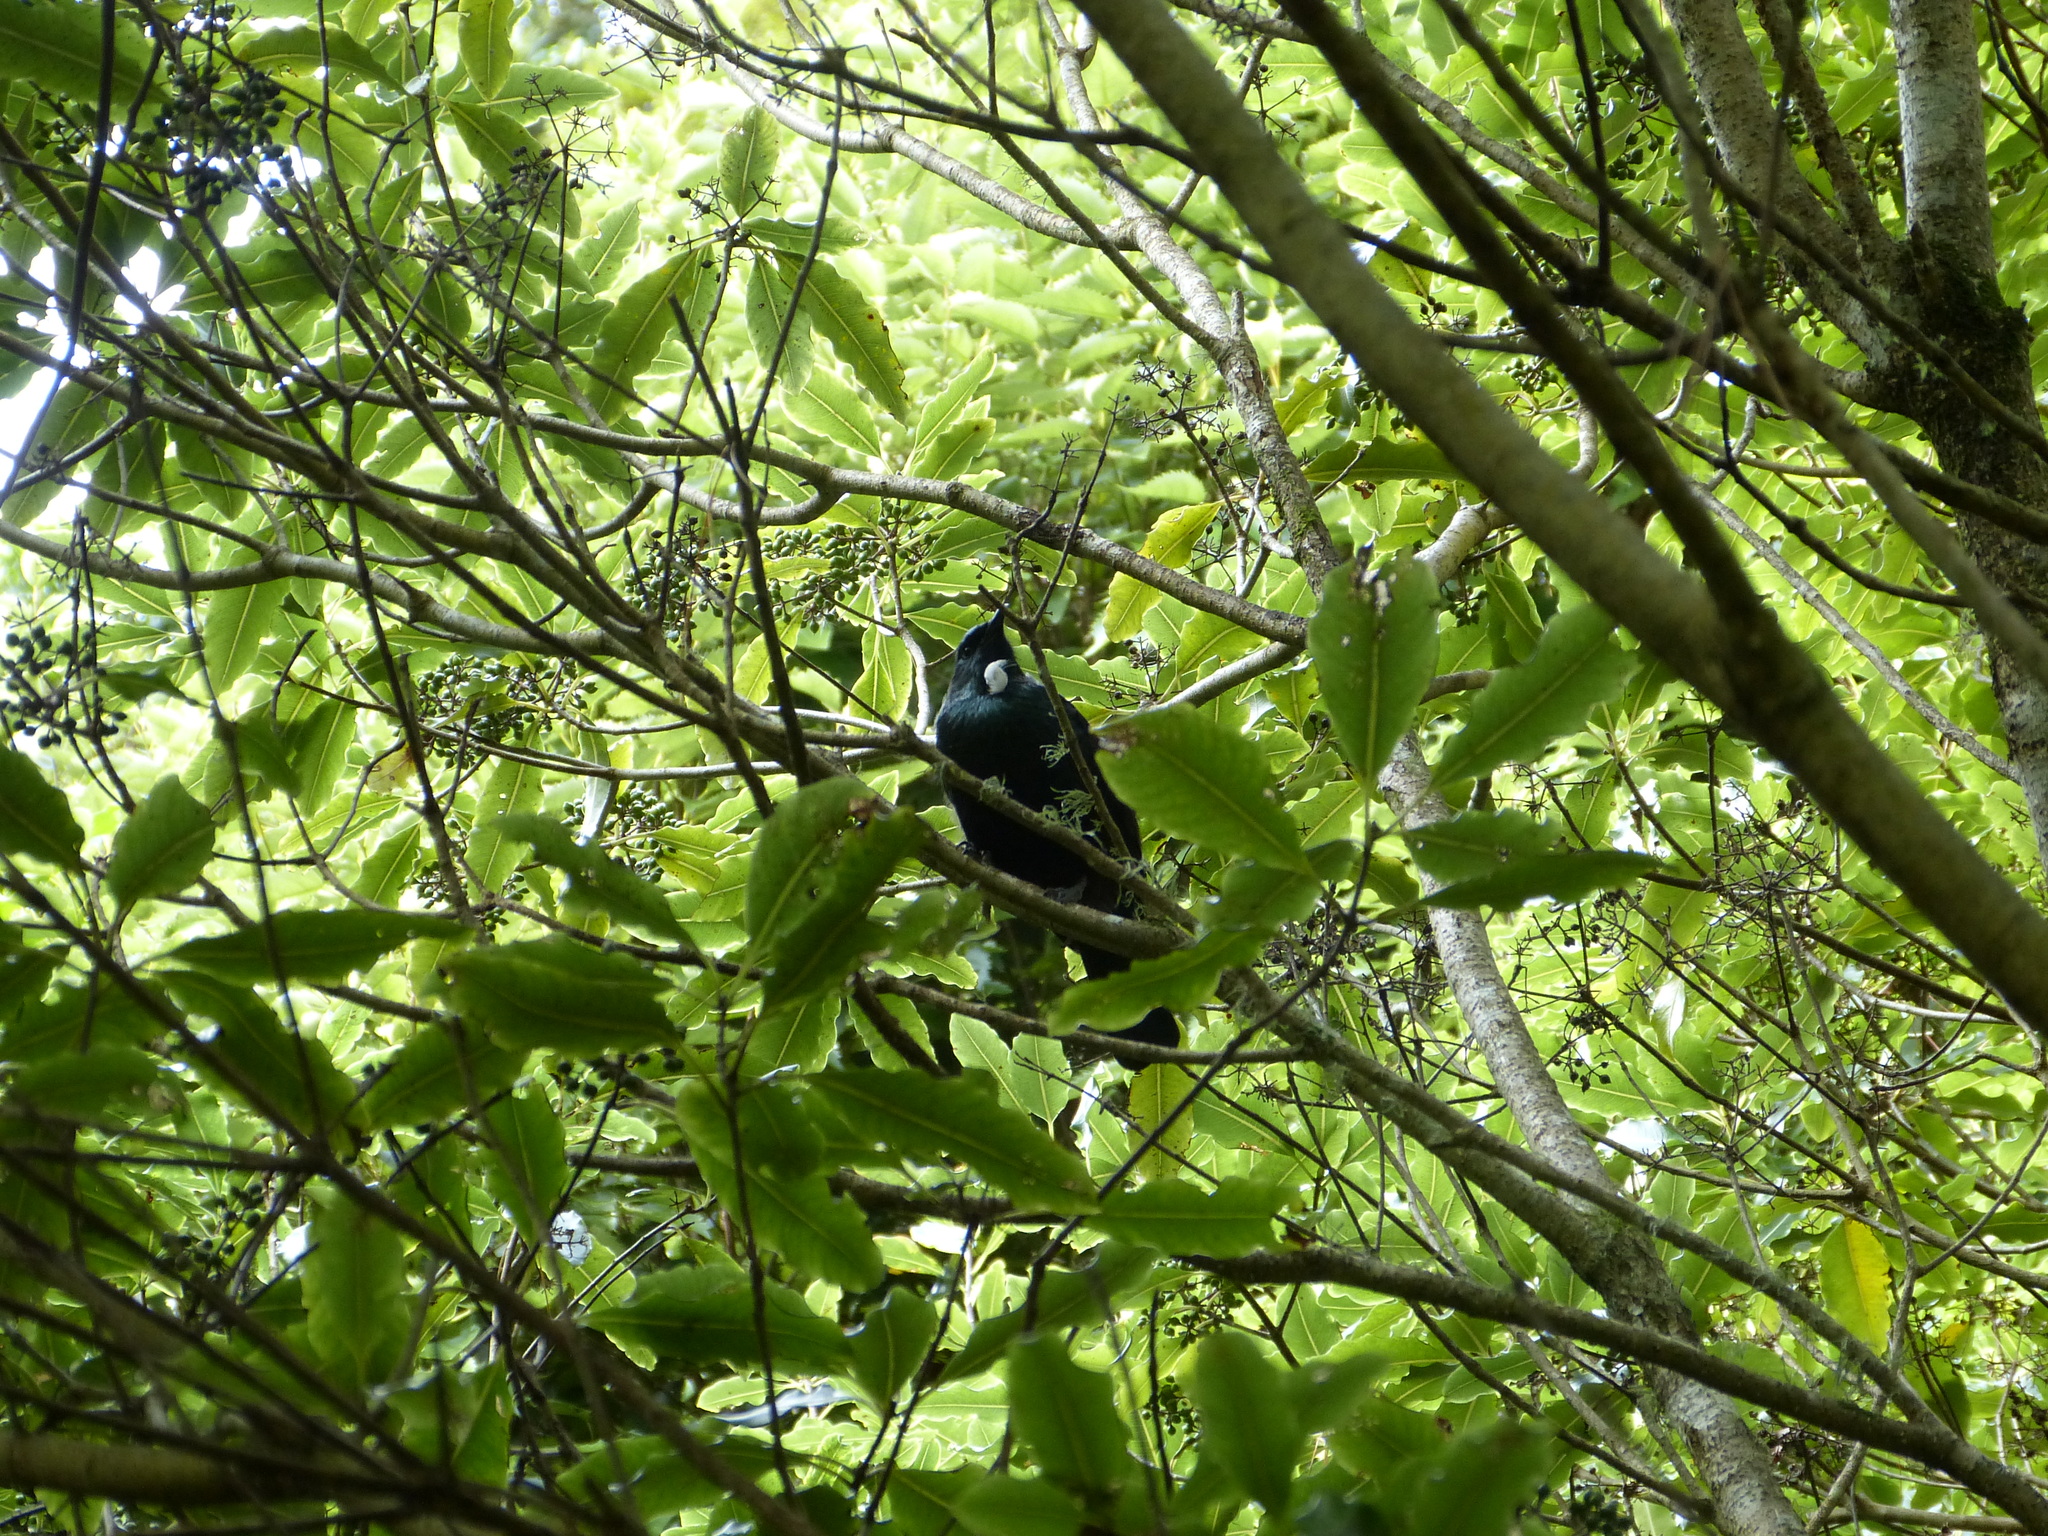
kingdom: Animalia
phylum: Chordata
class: Aves
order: Passeriformes
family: Meliphagidae
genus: Prosthemadera
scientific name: Prosthemadera novaeseelandiae
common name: Tui
